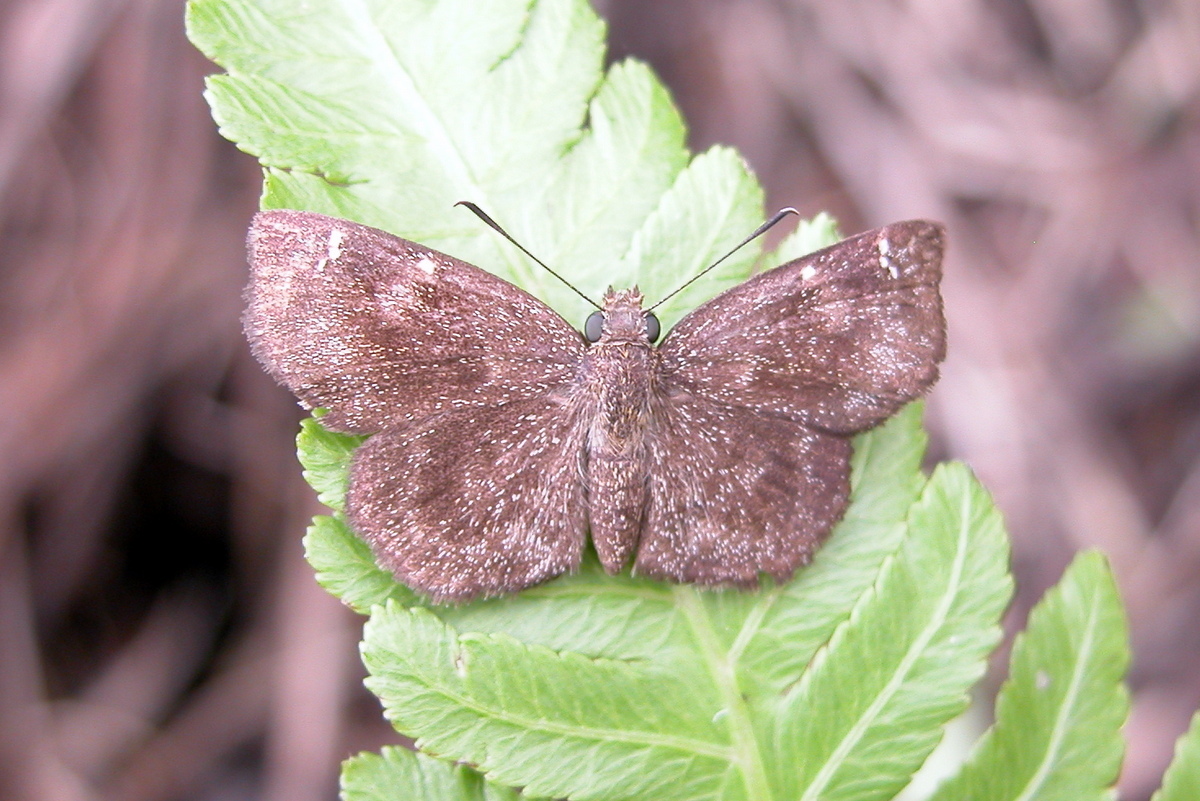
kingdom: Animalia
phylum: Arthropoda
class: Insecta
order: Lepidoptera
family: Hesperiidae
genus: Sarangesa
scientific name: Sarangesa dasahara
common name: Common small flat
